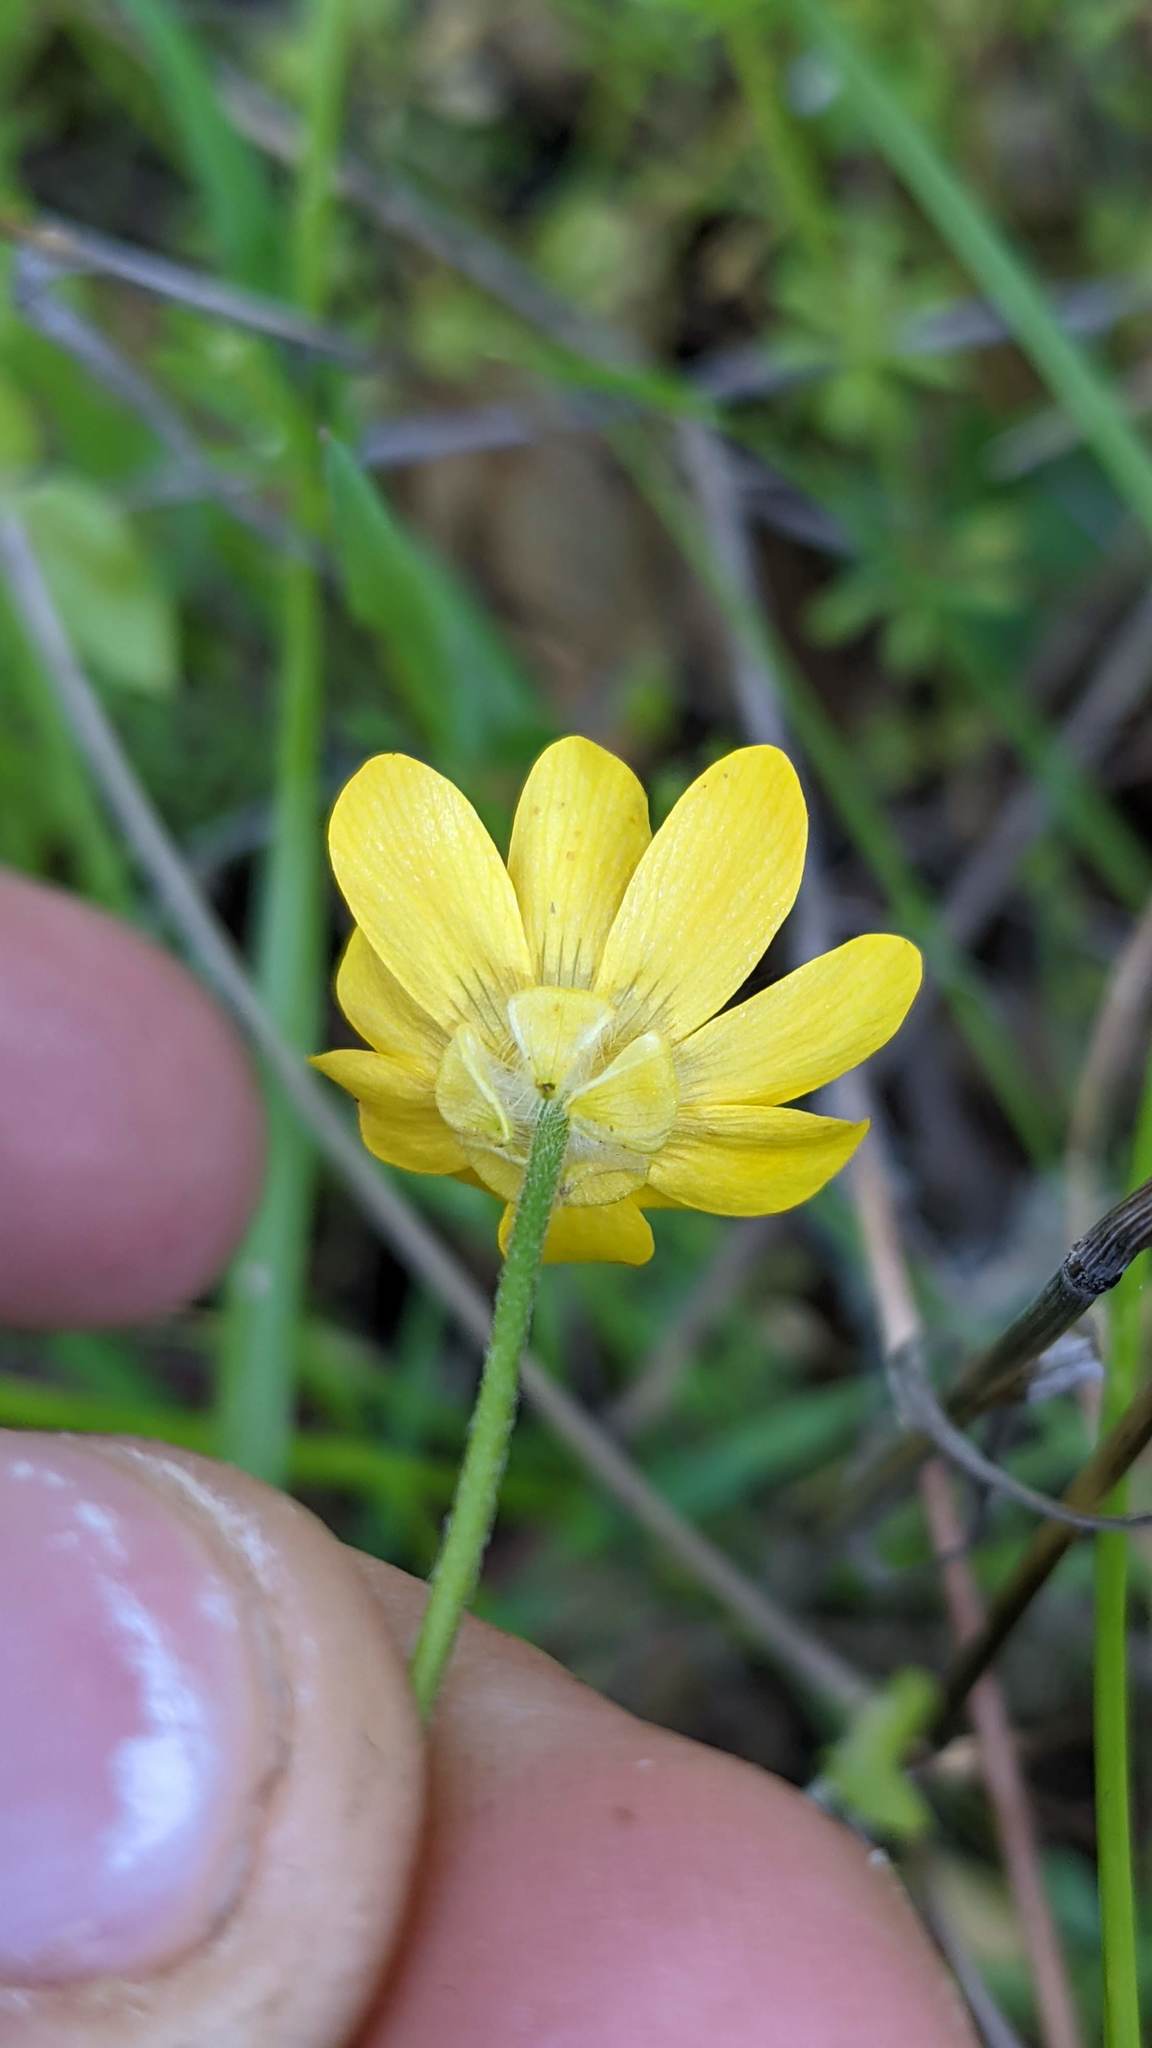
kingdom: Plantae
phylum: Tracheophyta
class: Magnoliopsida
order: Ranunculales
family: Ranunculaceae
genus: Ranunculus
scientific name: Ranunculus californicus
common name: California buttercup
